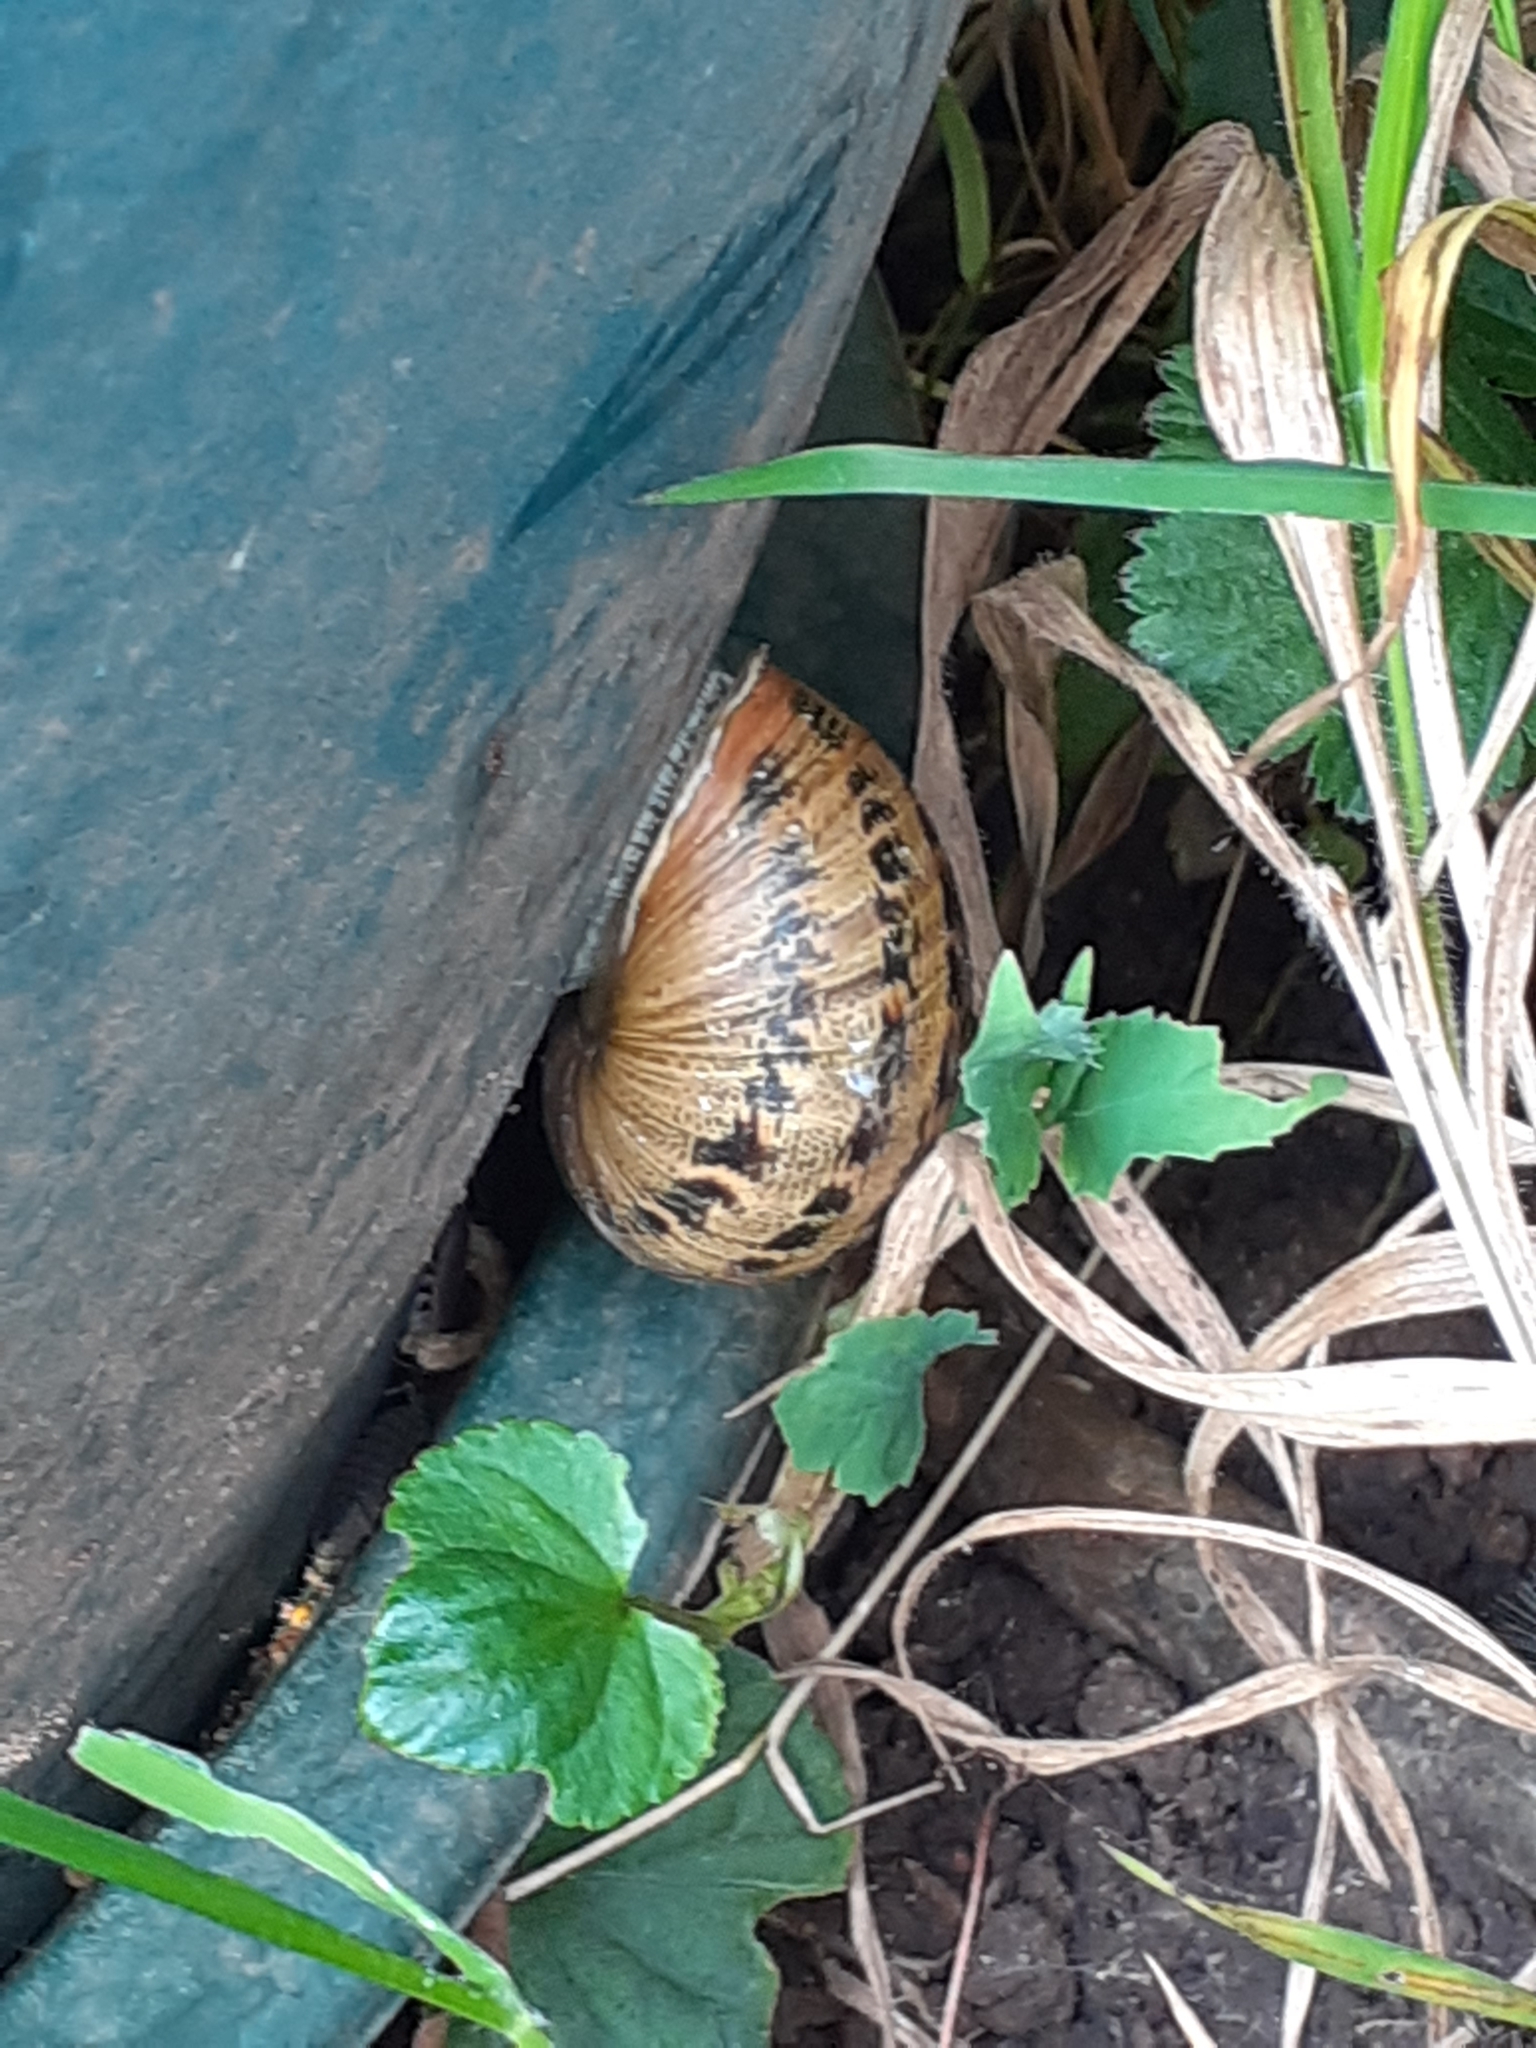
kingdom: Animalia
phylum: Mollusca
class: Gastropoda
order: Stylommatophora
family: Helicidae
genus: Cornu
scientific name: Cornu aspersum
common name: Brown garden snail
